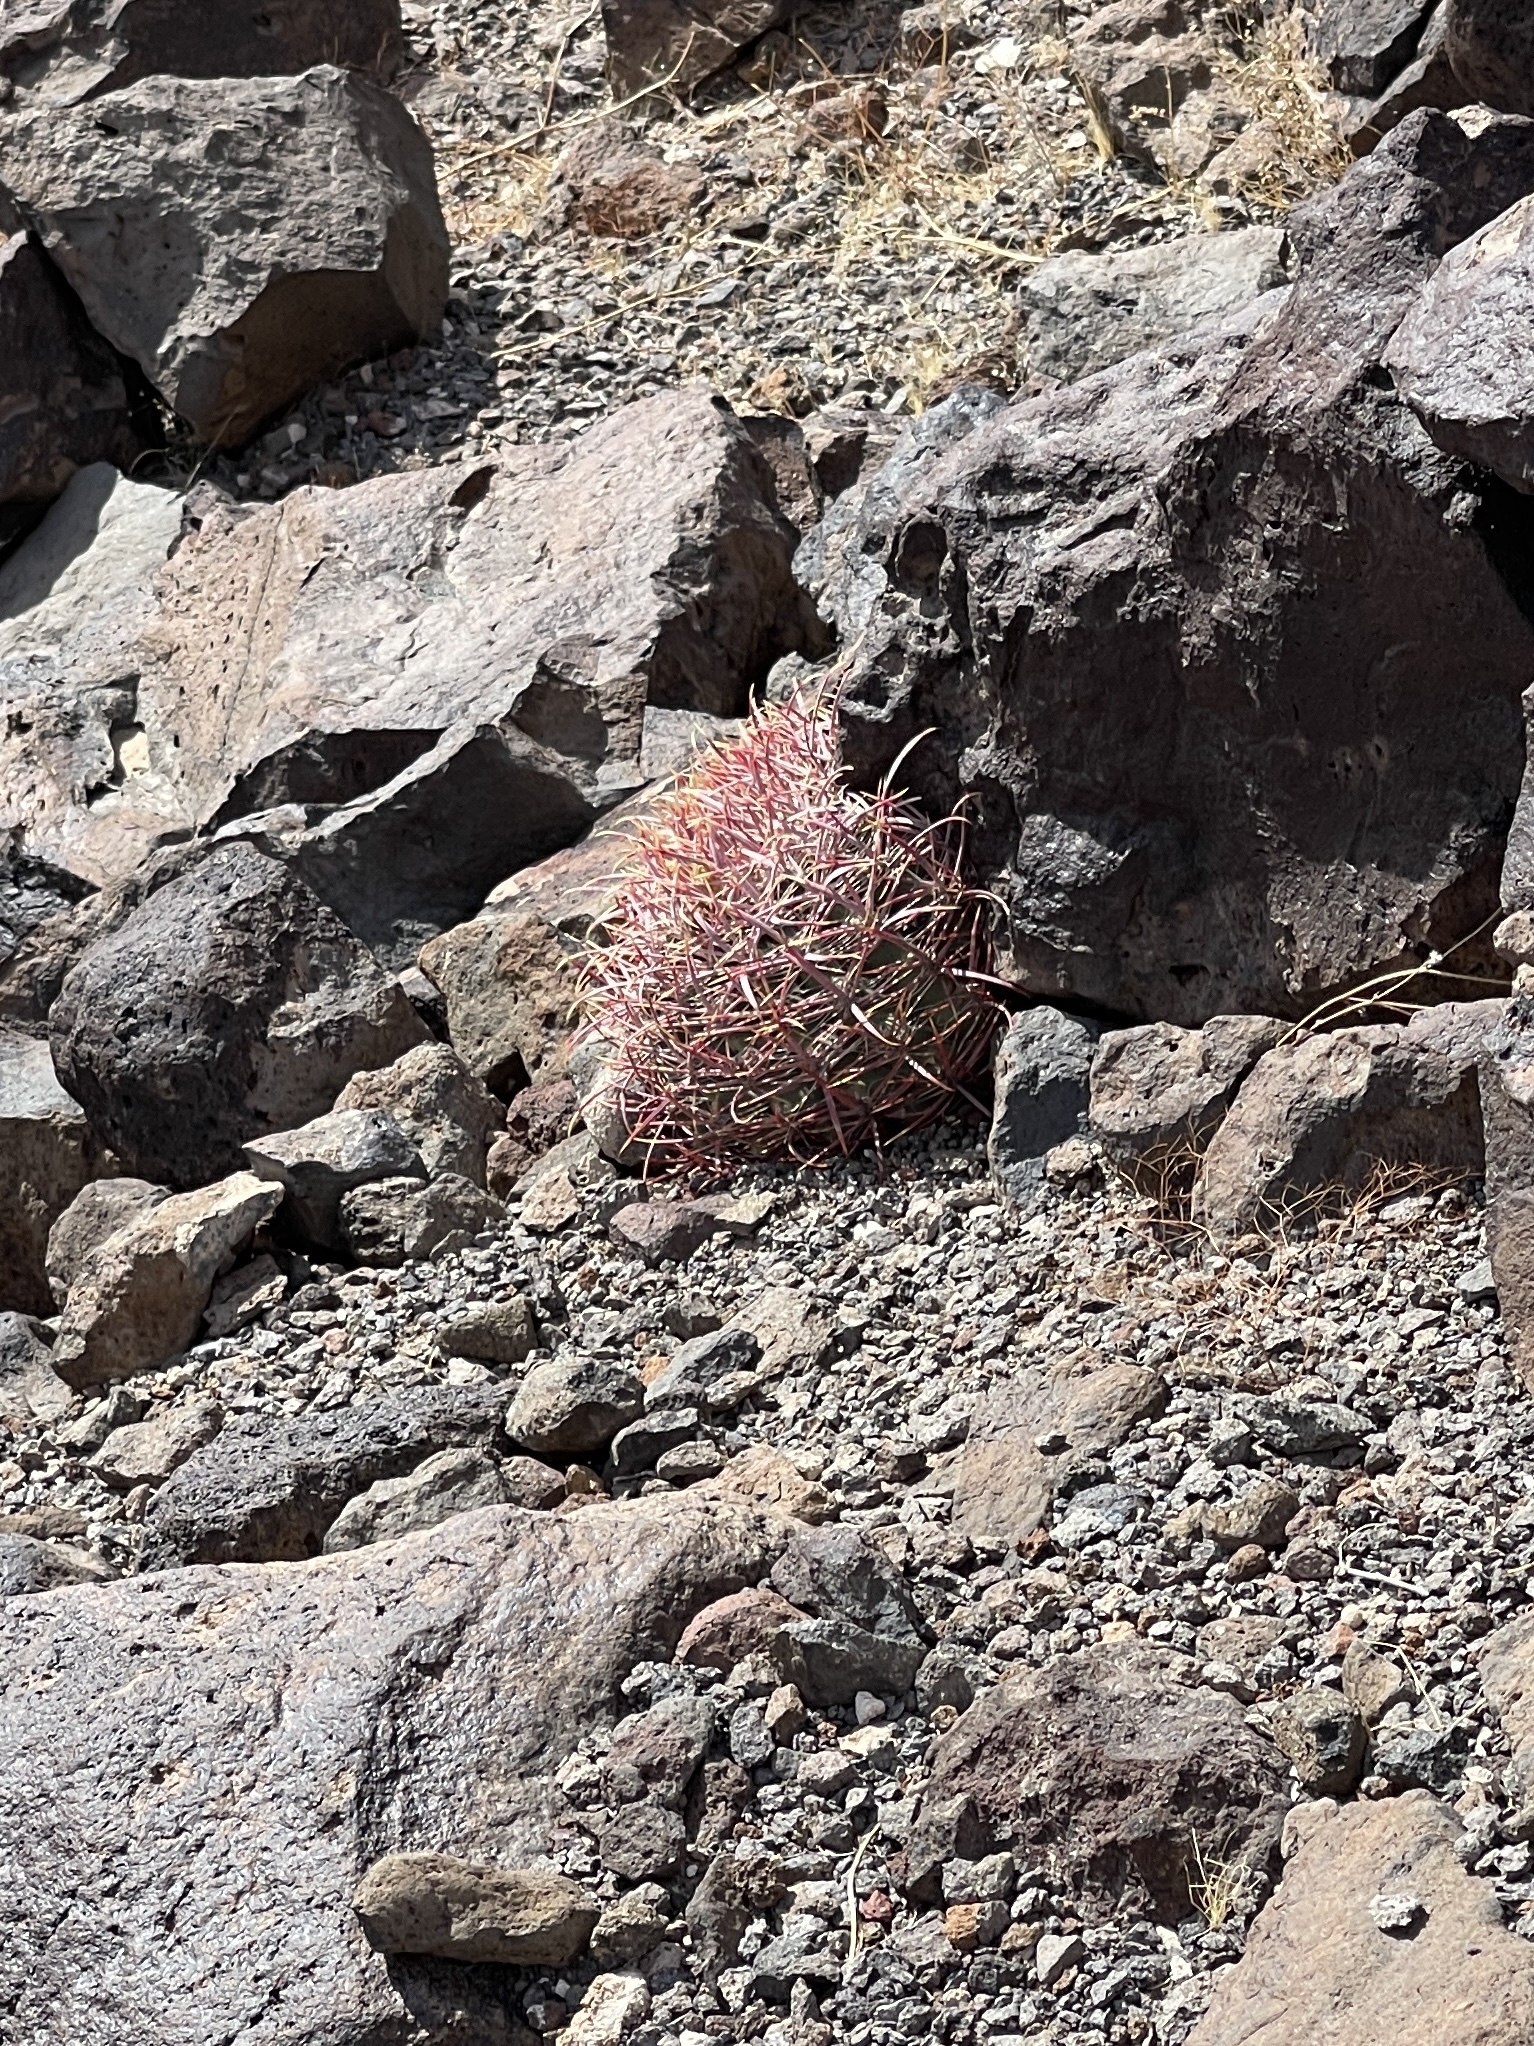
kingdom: Plantae
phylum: Tracheophyta
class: Magnoliopsida
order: Caryophyllales
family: Cactaceae
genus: Ferocactus
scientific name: Ferocactus cylindraceus
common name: California barrel cactus
